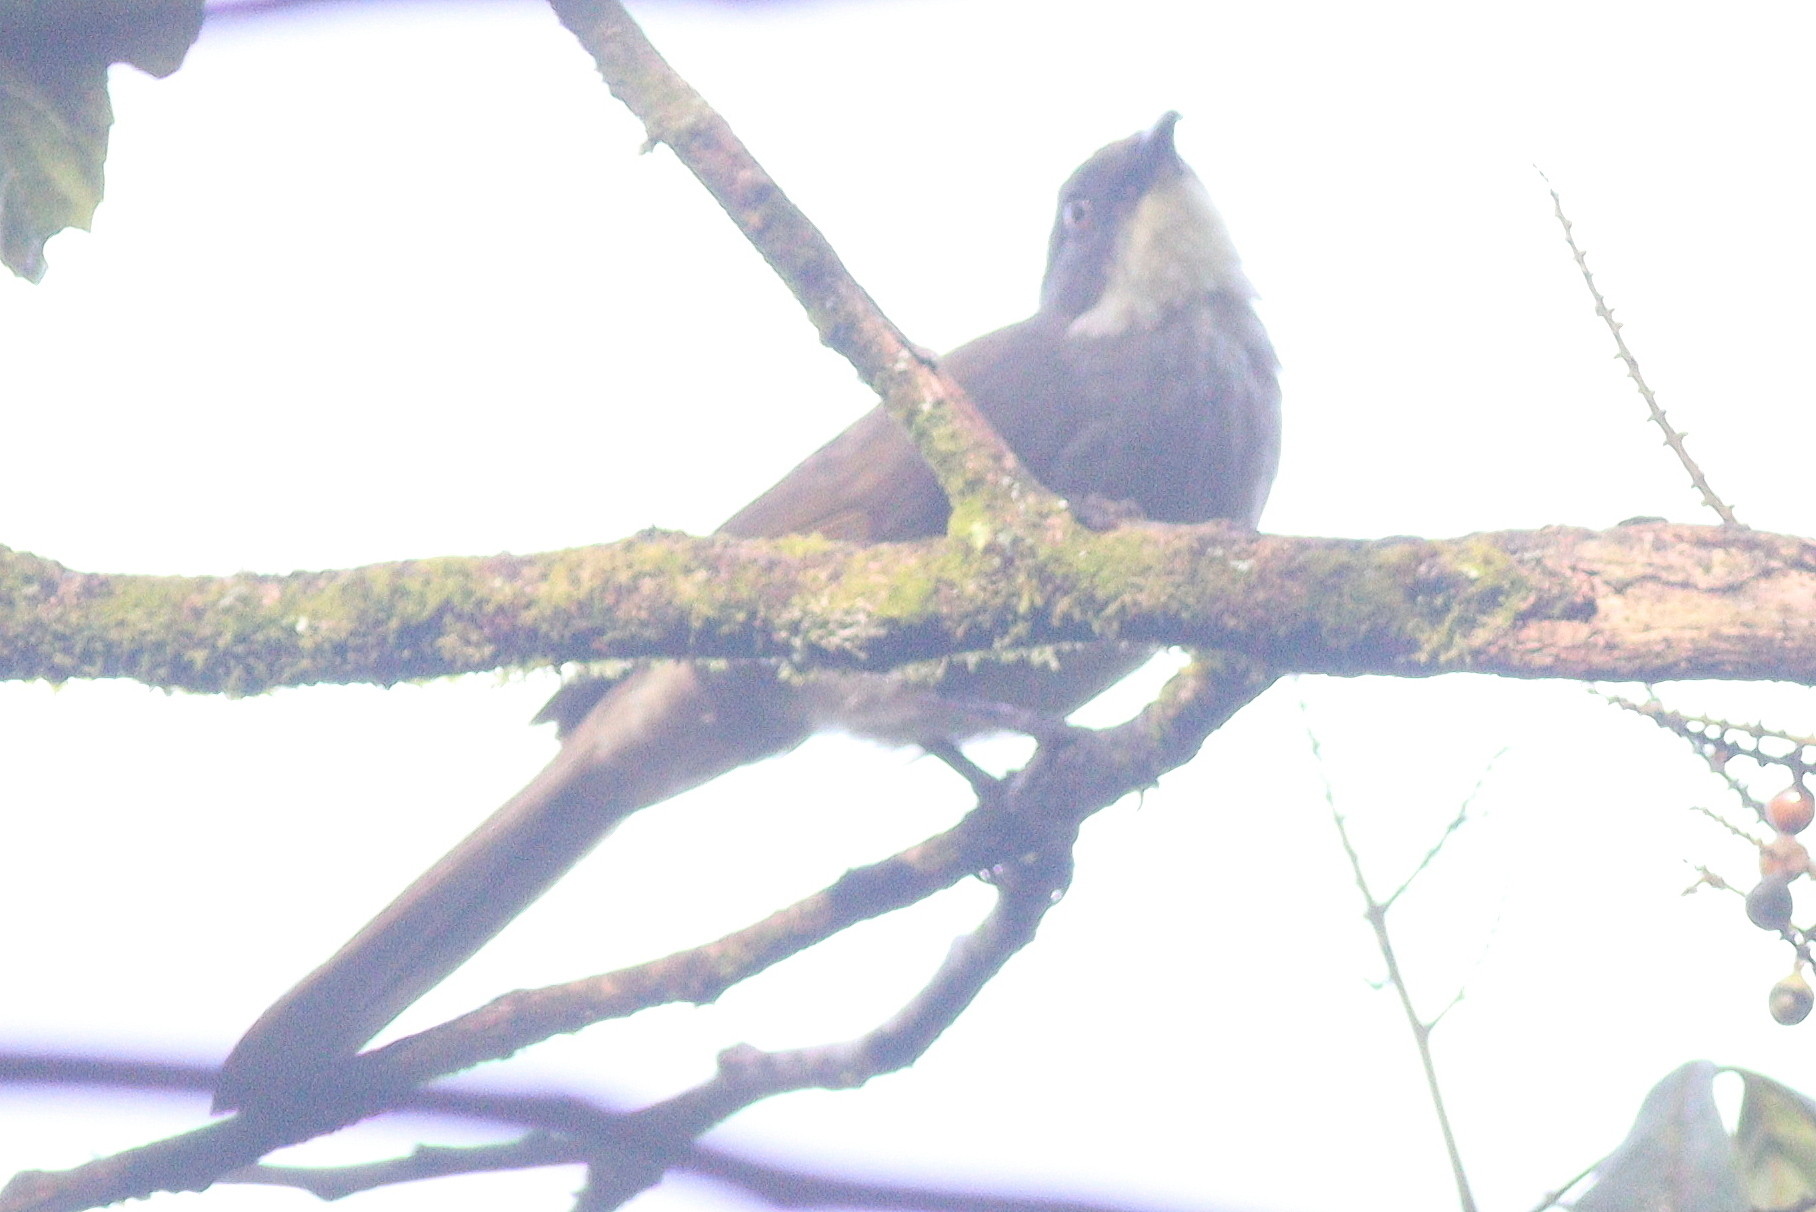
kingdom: Animalia
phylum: Chordata
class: Aves
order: Passeriformes
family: Pycnonotidae
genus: Atimastillas
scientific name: Atimastillas flavicollis
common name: Yellow-throated leaflove
